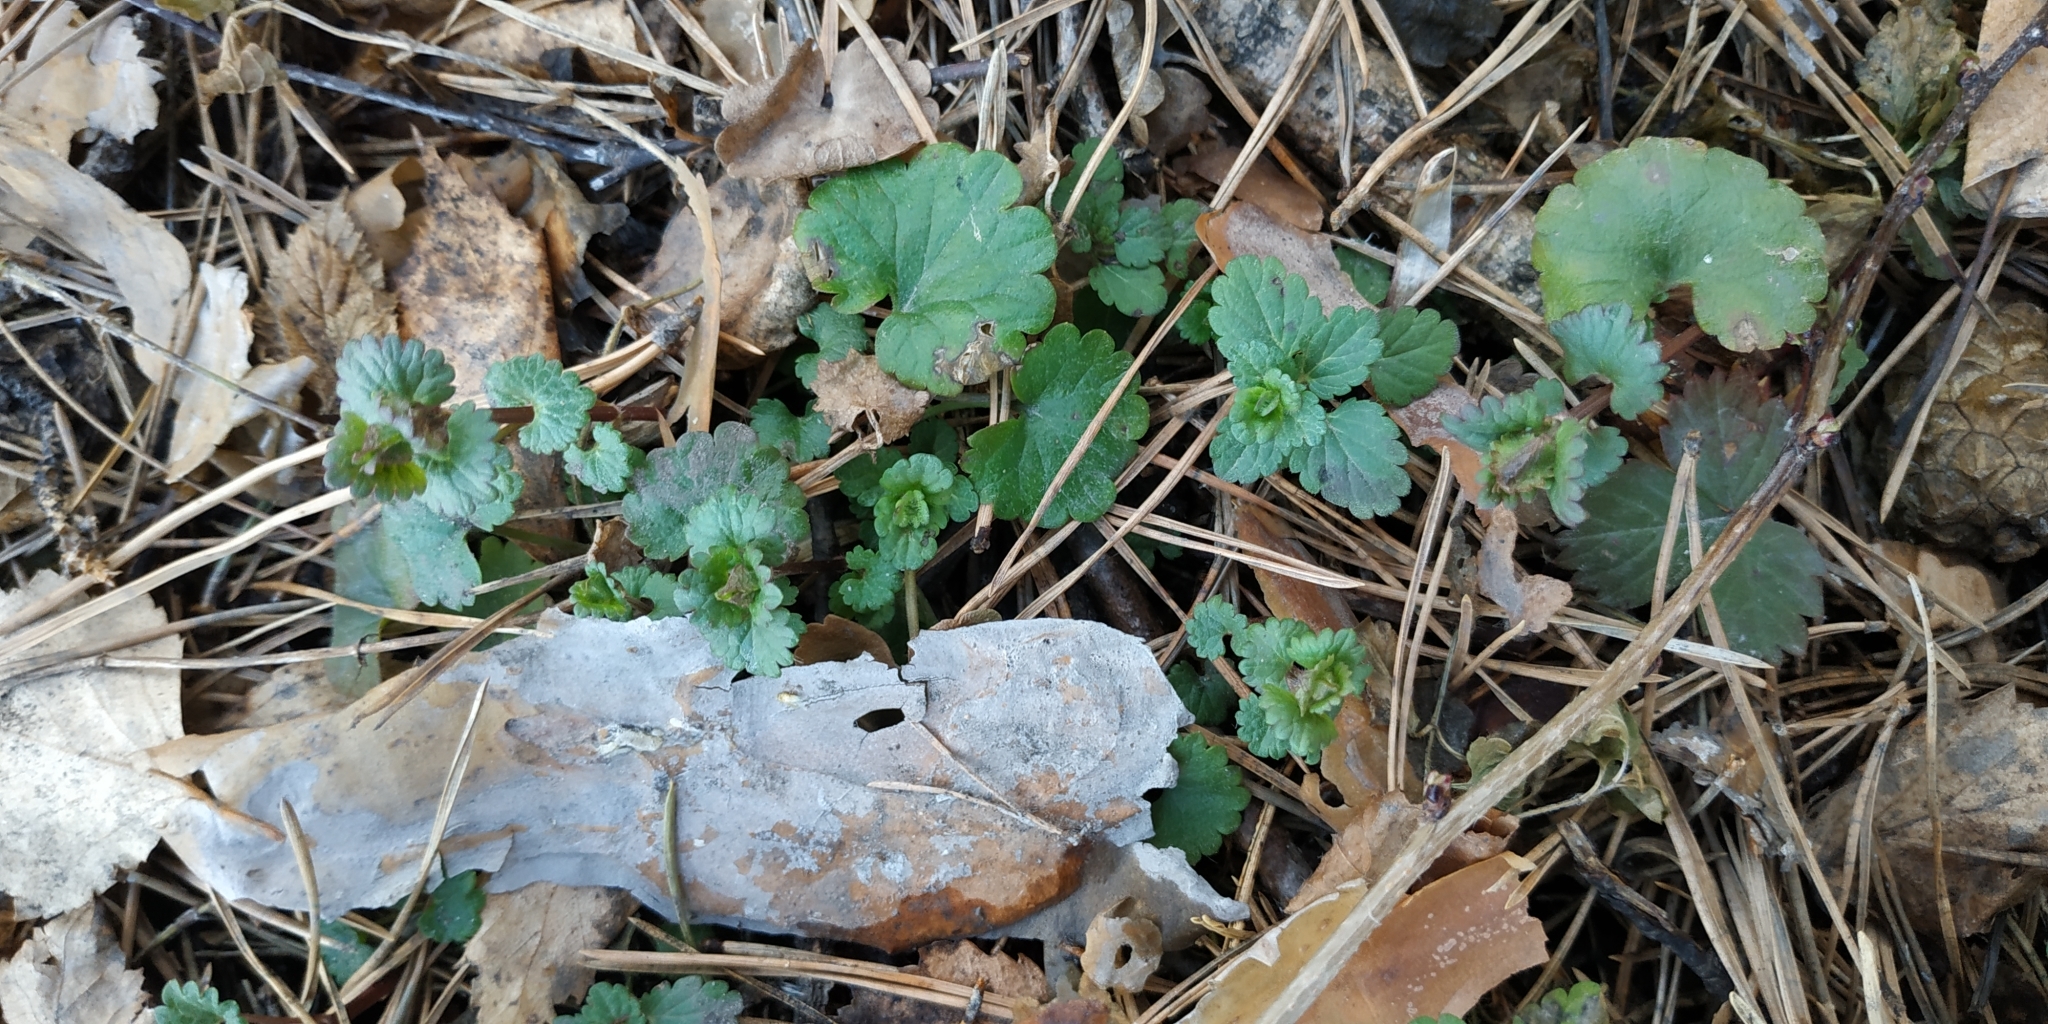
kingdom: Plantae
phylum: Tracheophyta
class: Magnoliopsida
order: Lamiales
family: Lamiaceae
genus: Glechoma
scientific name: Glechoma hederacea
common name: Ground ivy
